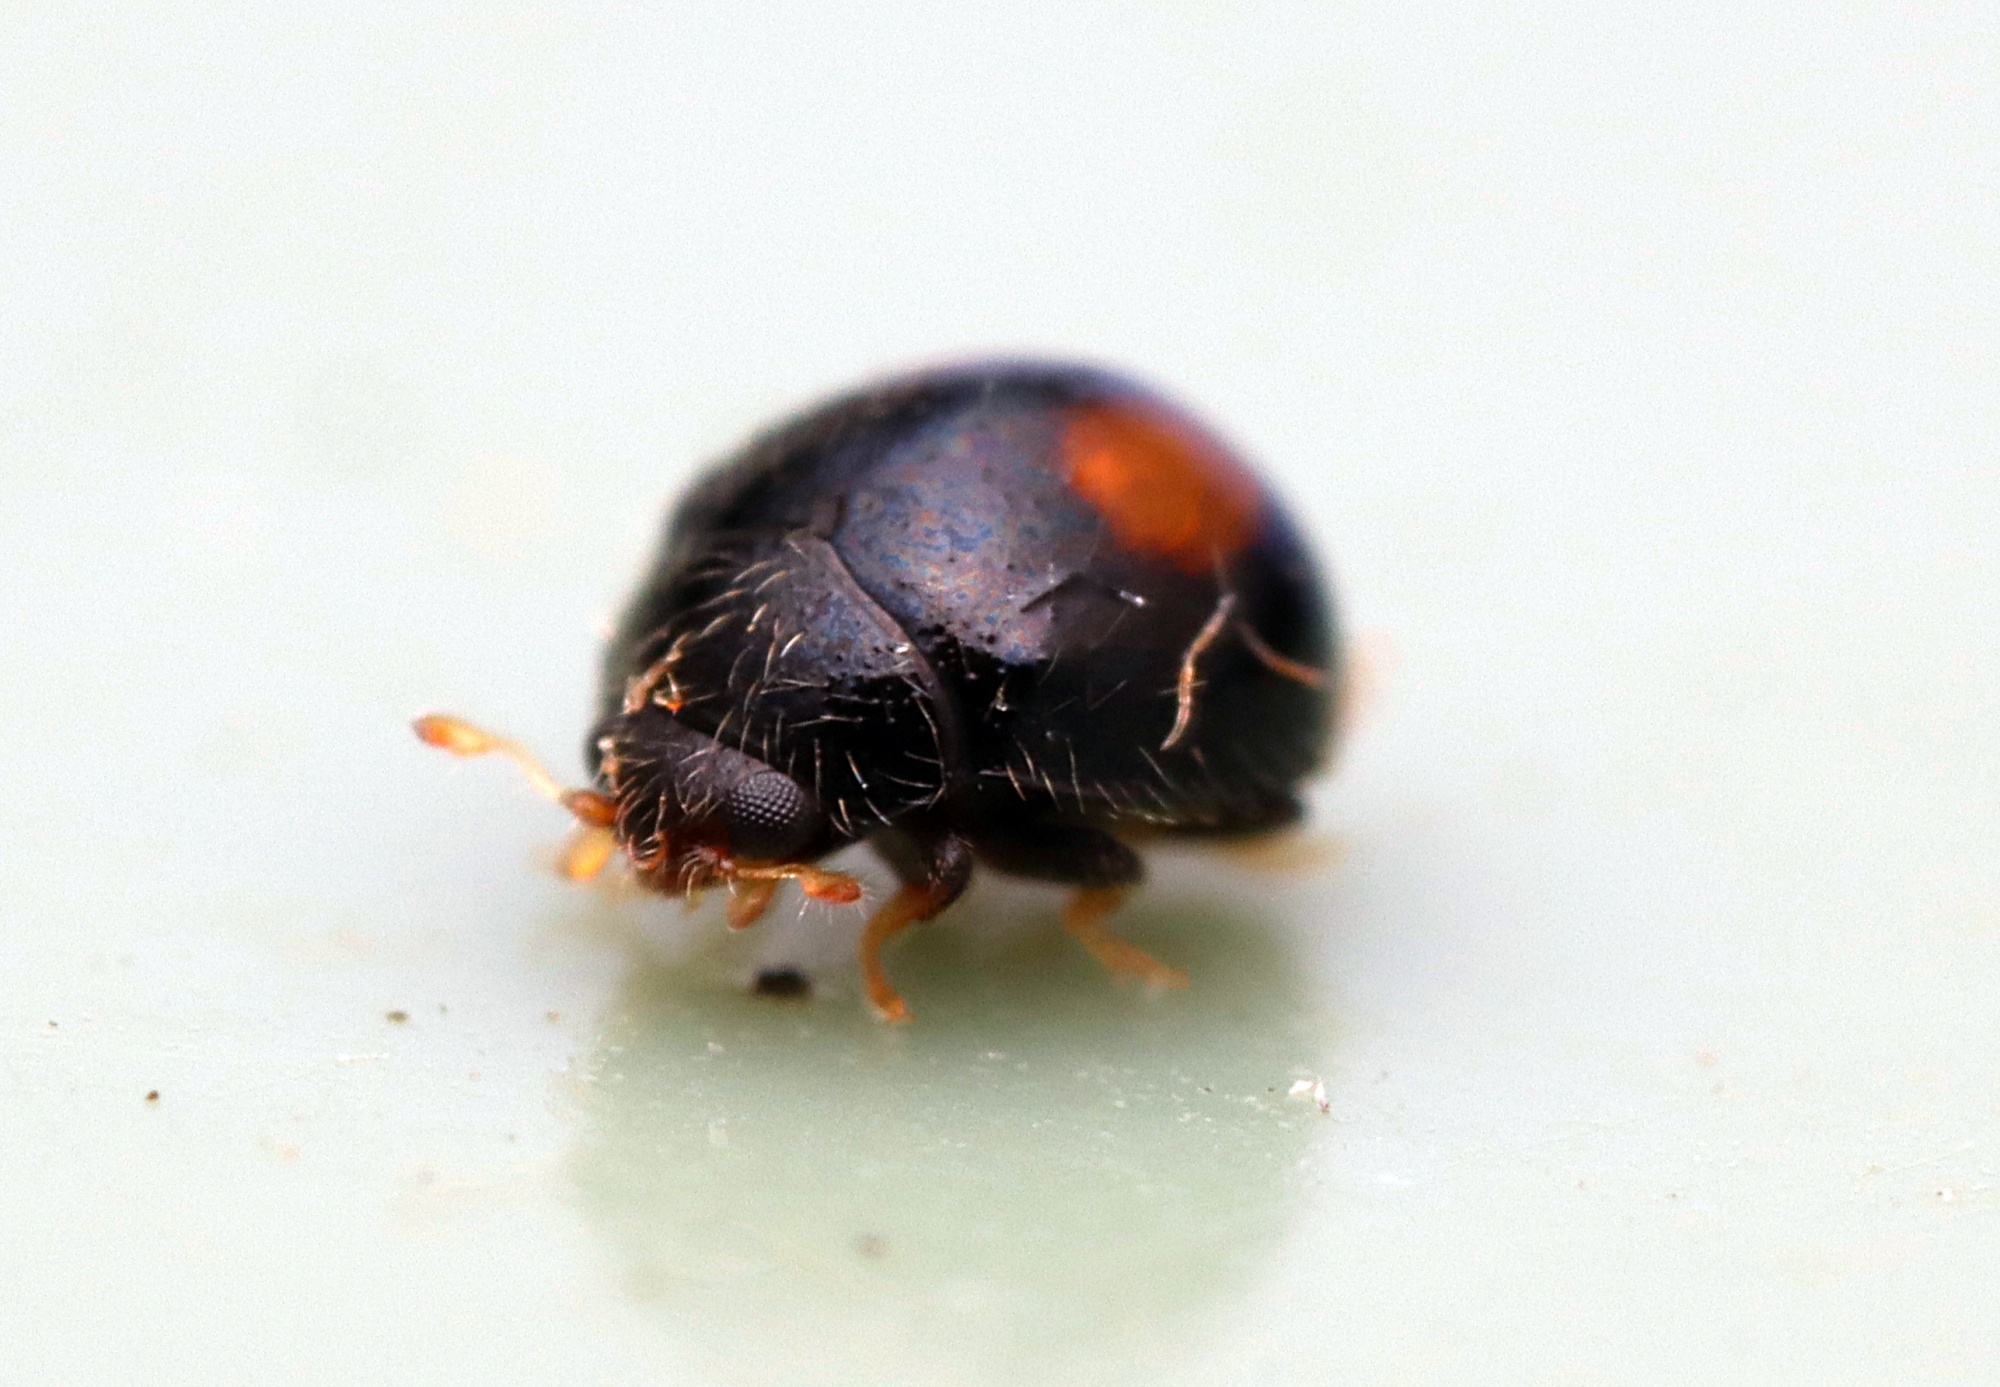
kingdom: Animalia
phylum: Arthropoda
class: Insecta
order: Coleoptera
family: Coccinellidae
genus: Serangium
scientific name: Serangium maculigerum
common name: Lady beetle
